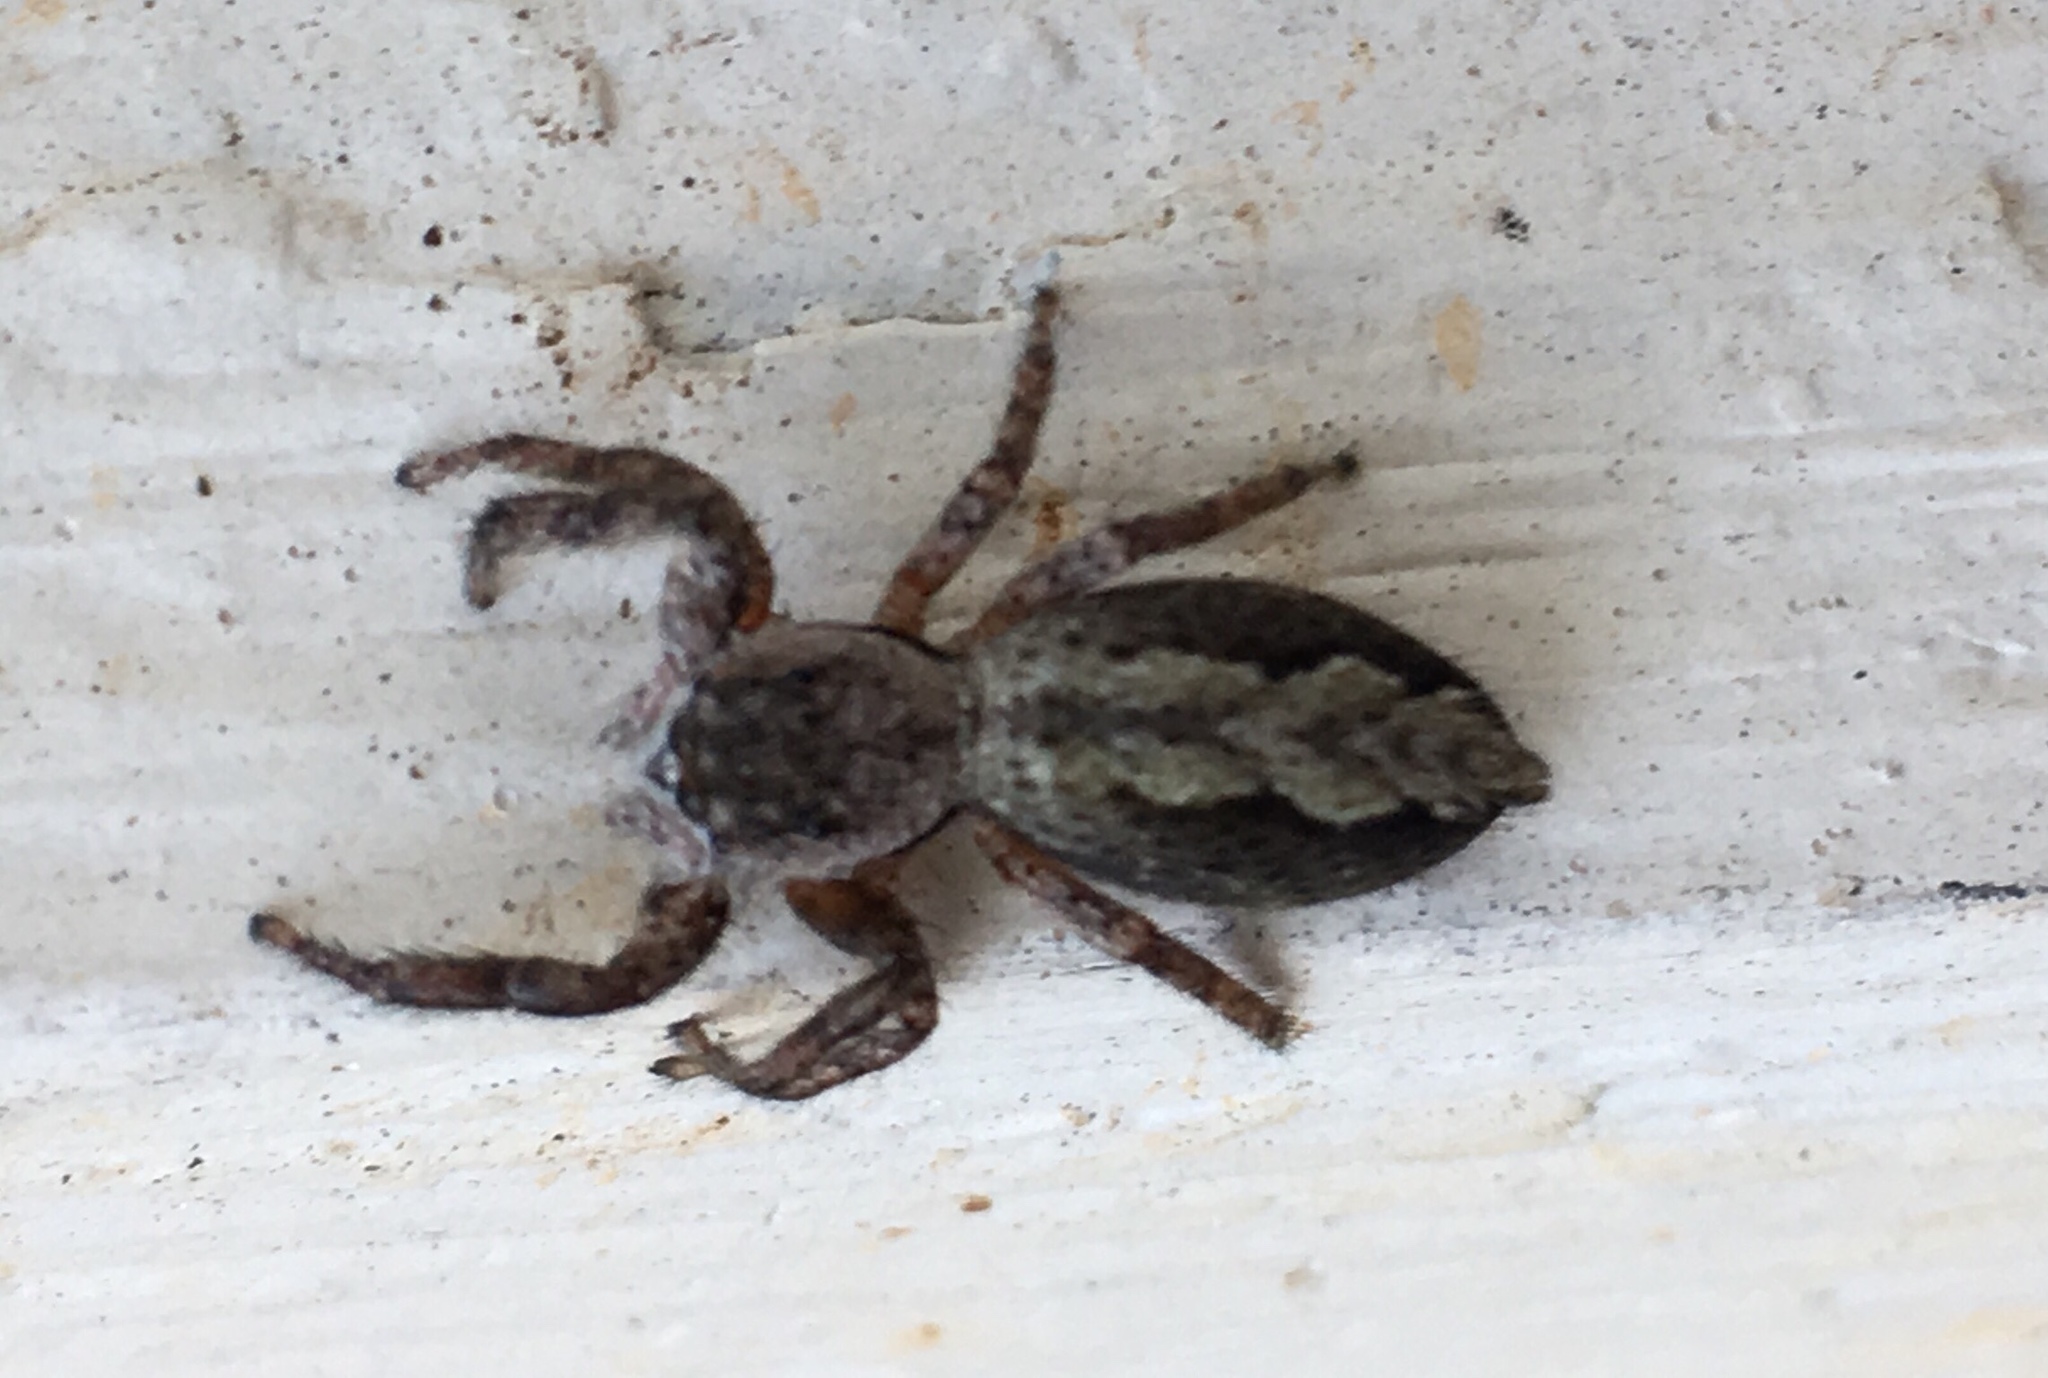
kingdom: Animalia
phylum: Arthropoda
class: Arachnida
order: Araneae
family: Salticidae
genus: Platycryptus
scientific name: Platycryptus undatus
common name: Tan jumping spider
